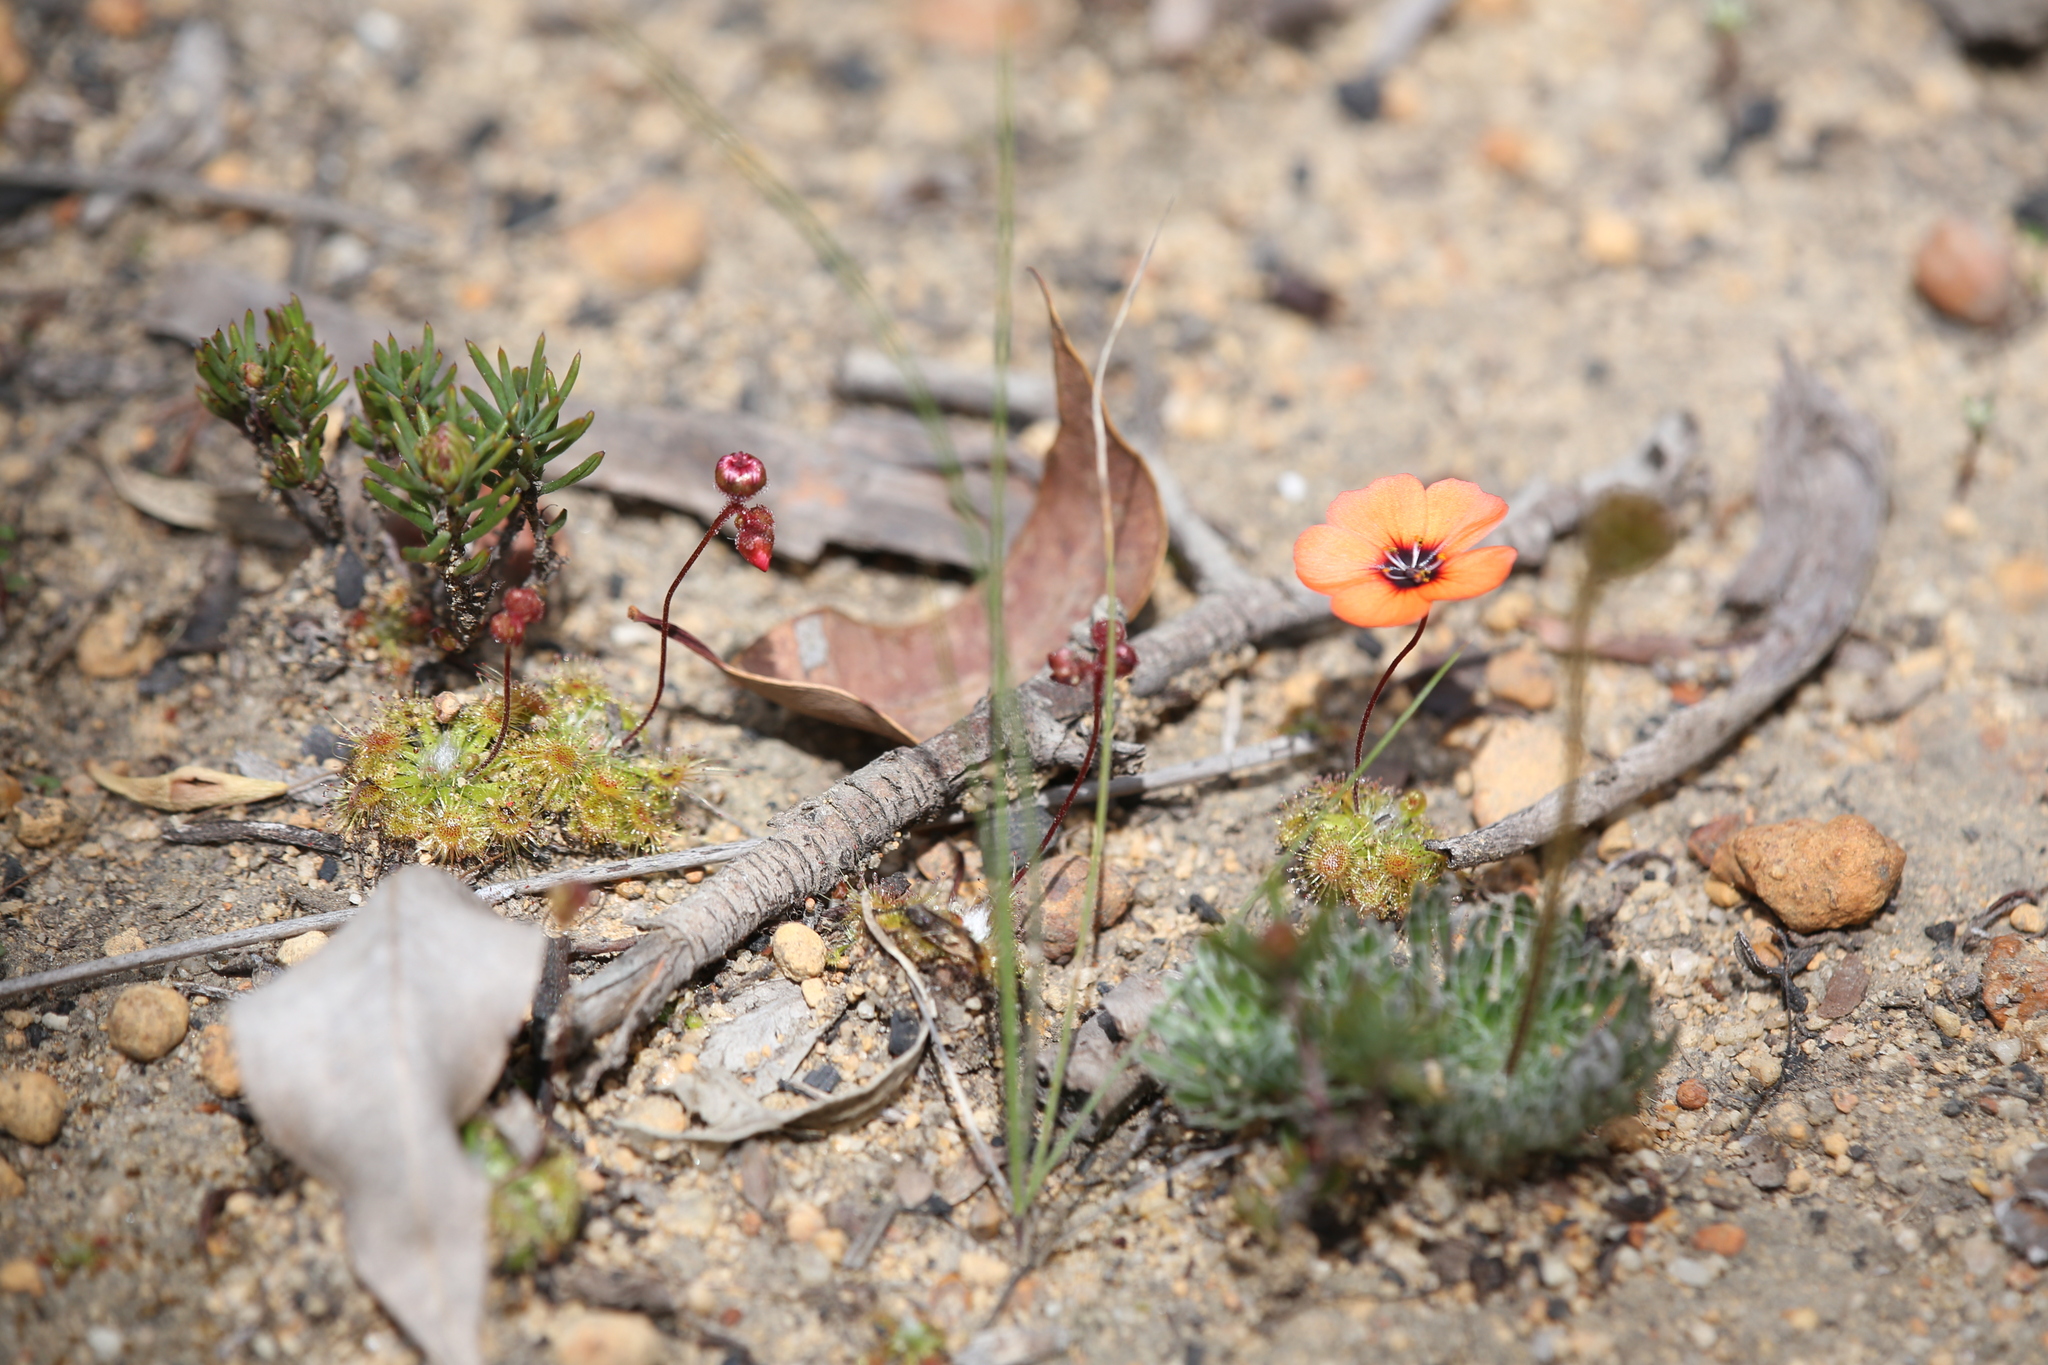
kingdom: Plantae
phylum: Tracheophyta
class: Magnoliopsida
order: Caryophyllales
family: Droseraceae
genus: Drosera
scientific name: Drosera platystigma
